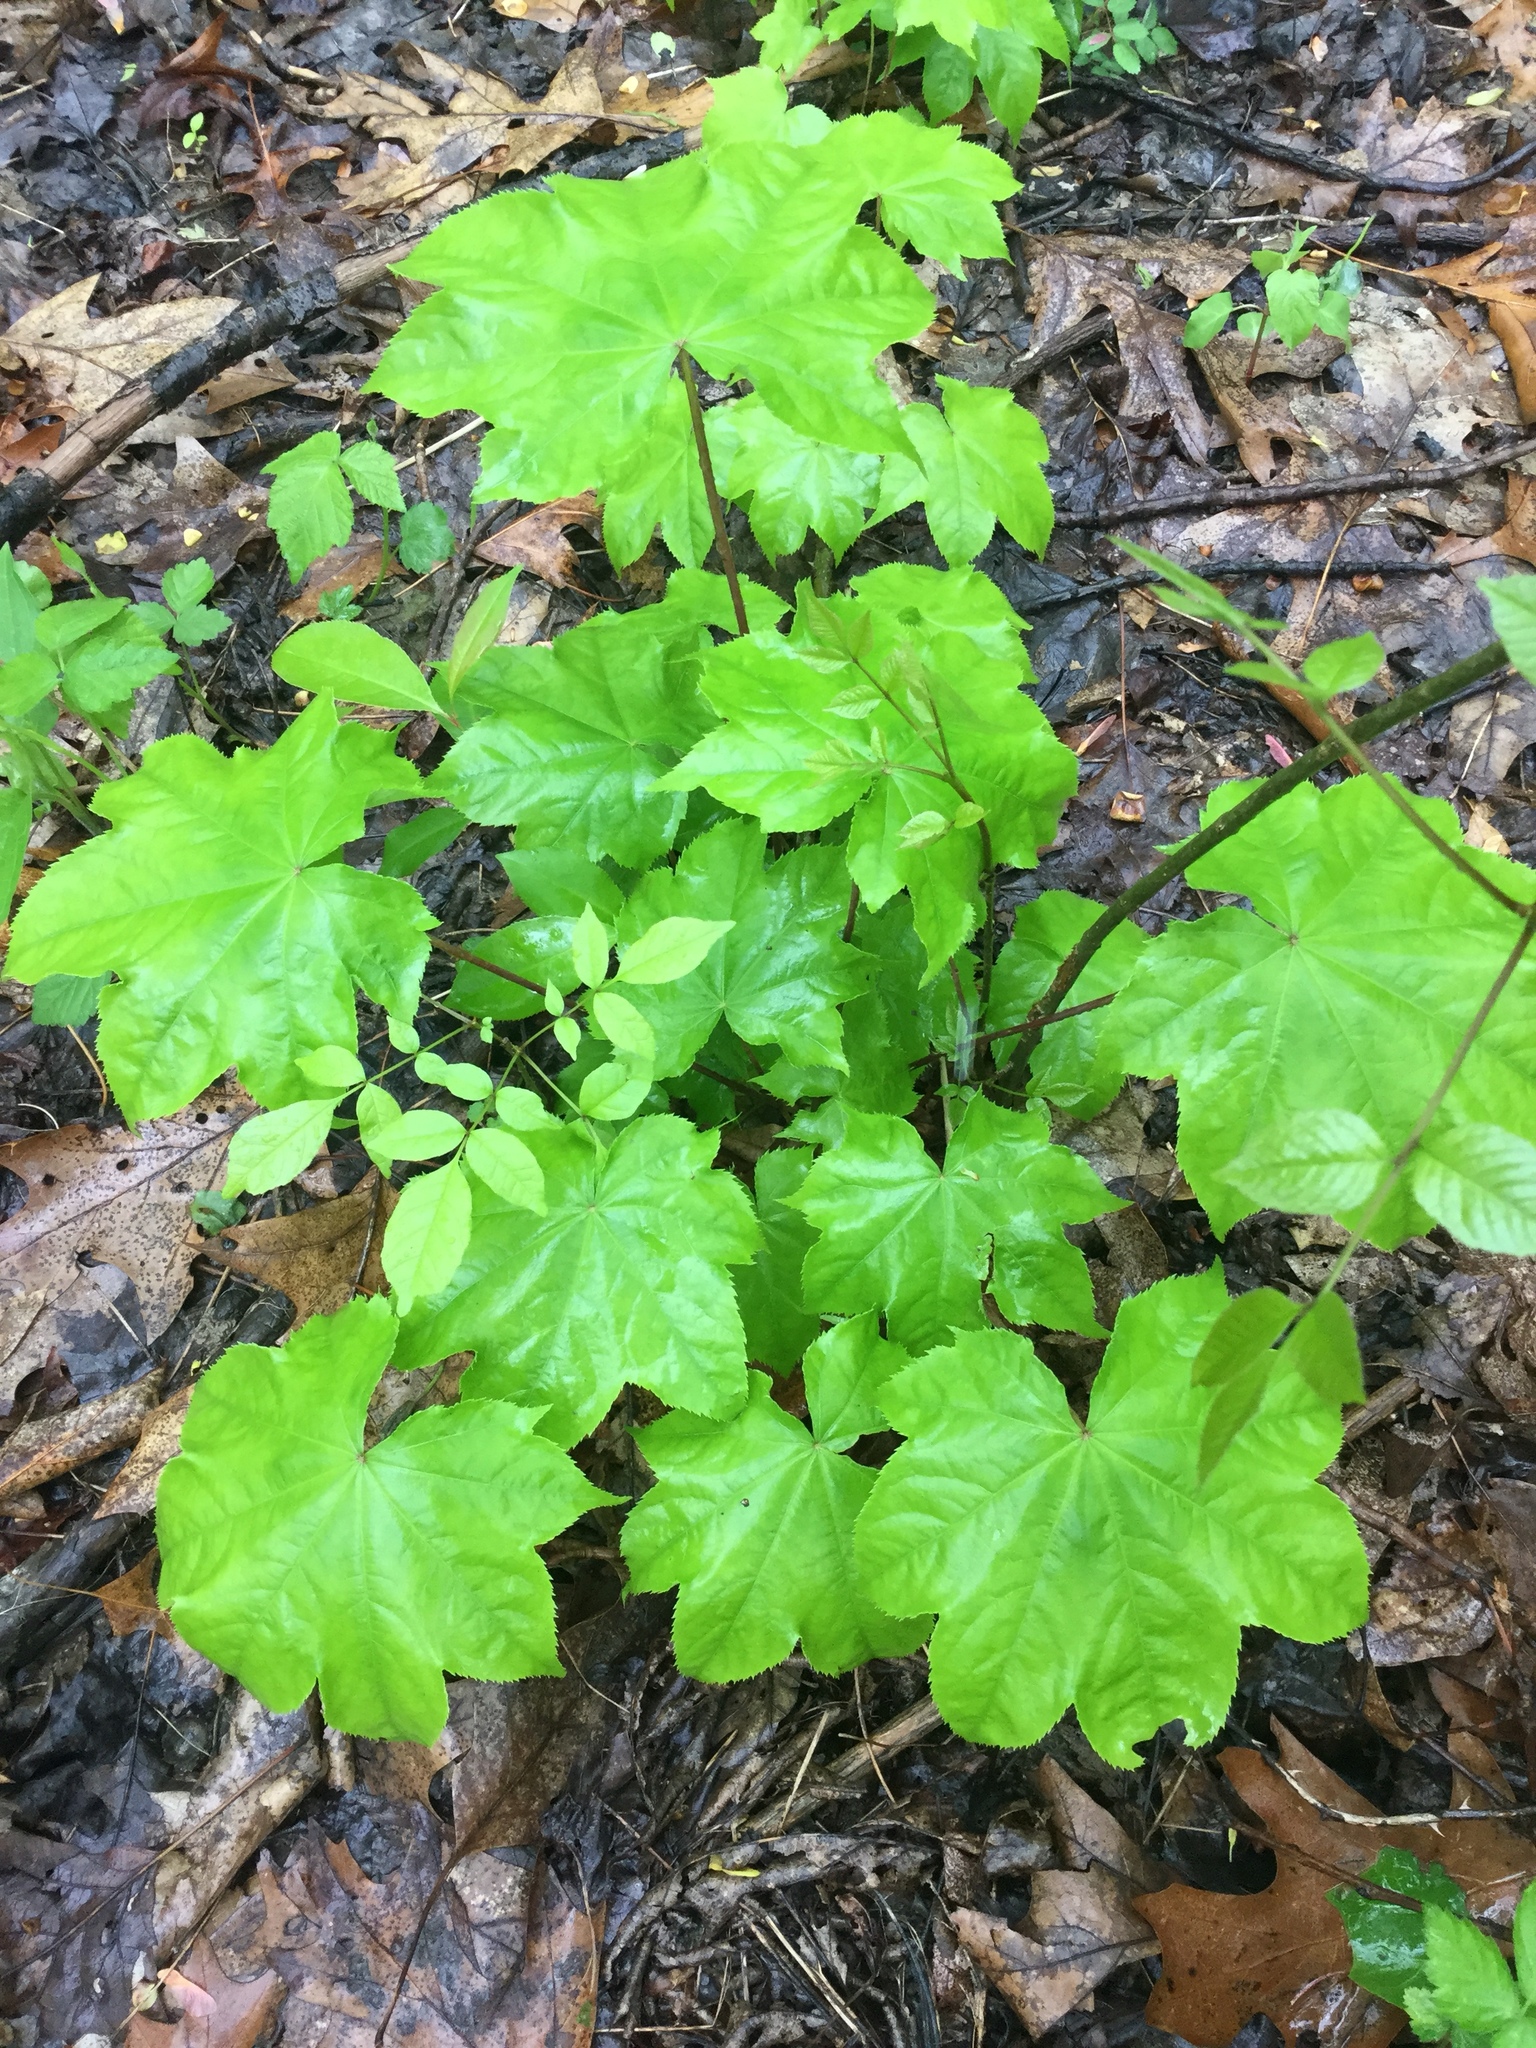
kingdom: Plantae
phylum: Tracheophyta
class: Magnoliopsida
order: Apiales
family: Araliaceae
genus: Kalopanax
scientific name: Kalopanax septemlobus
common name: Castor aralia
